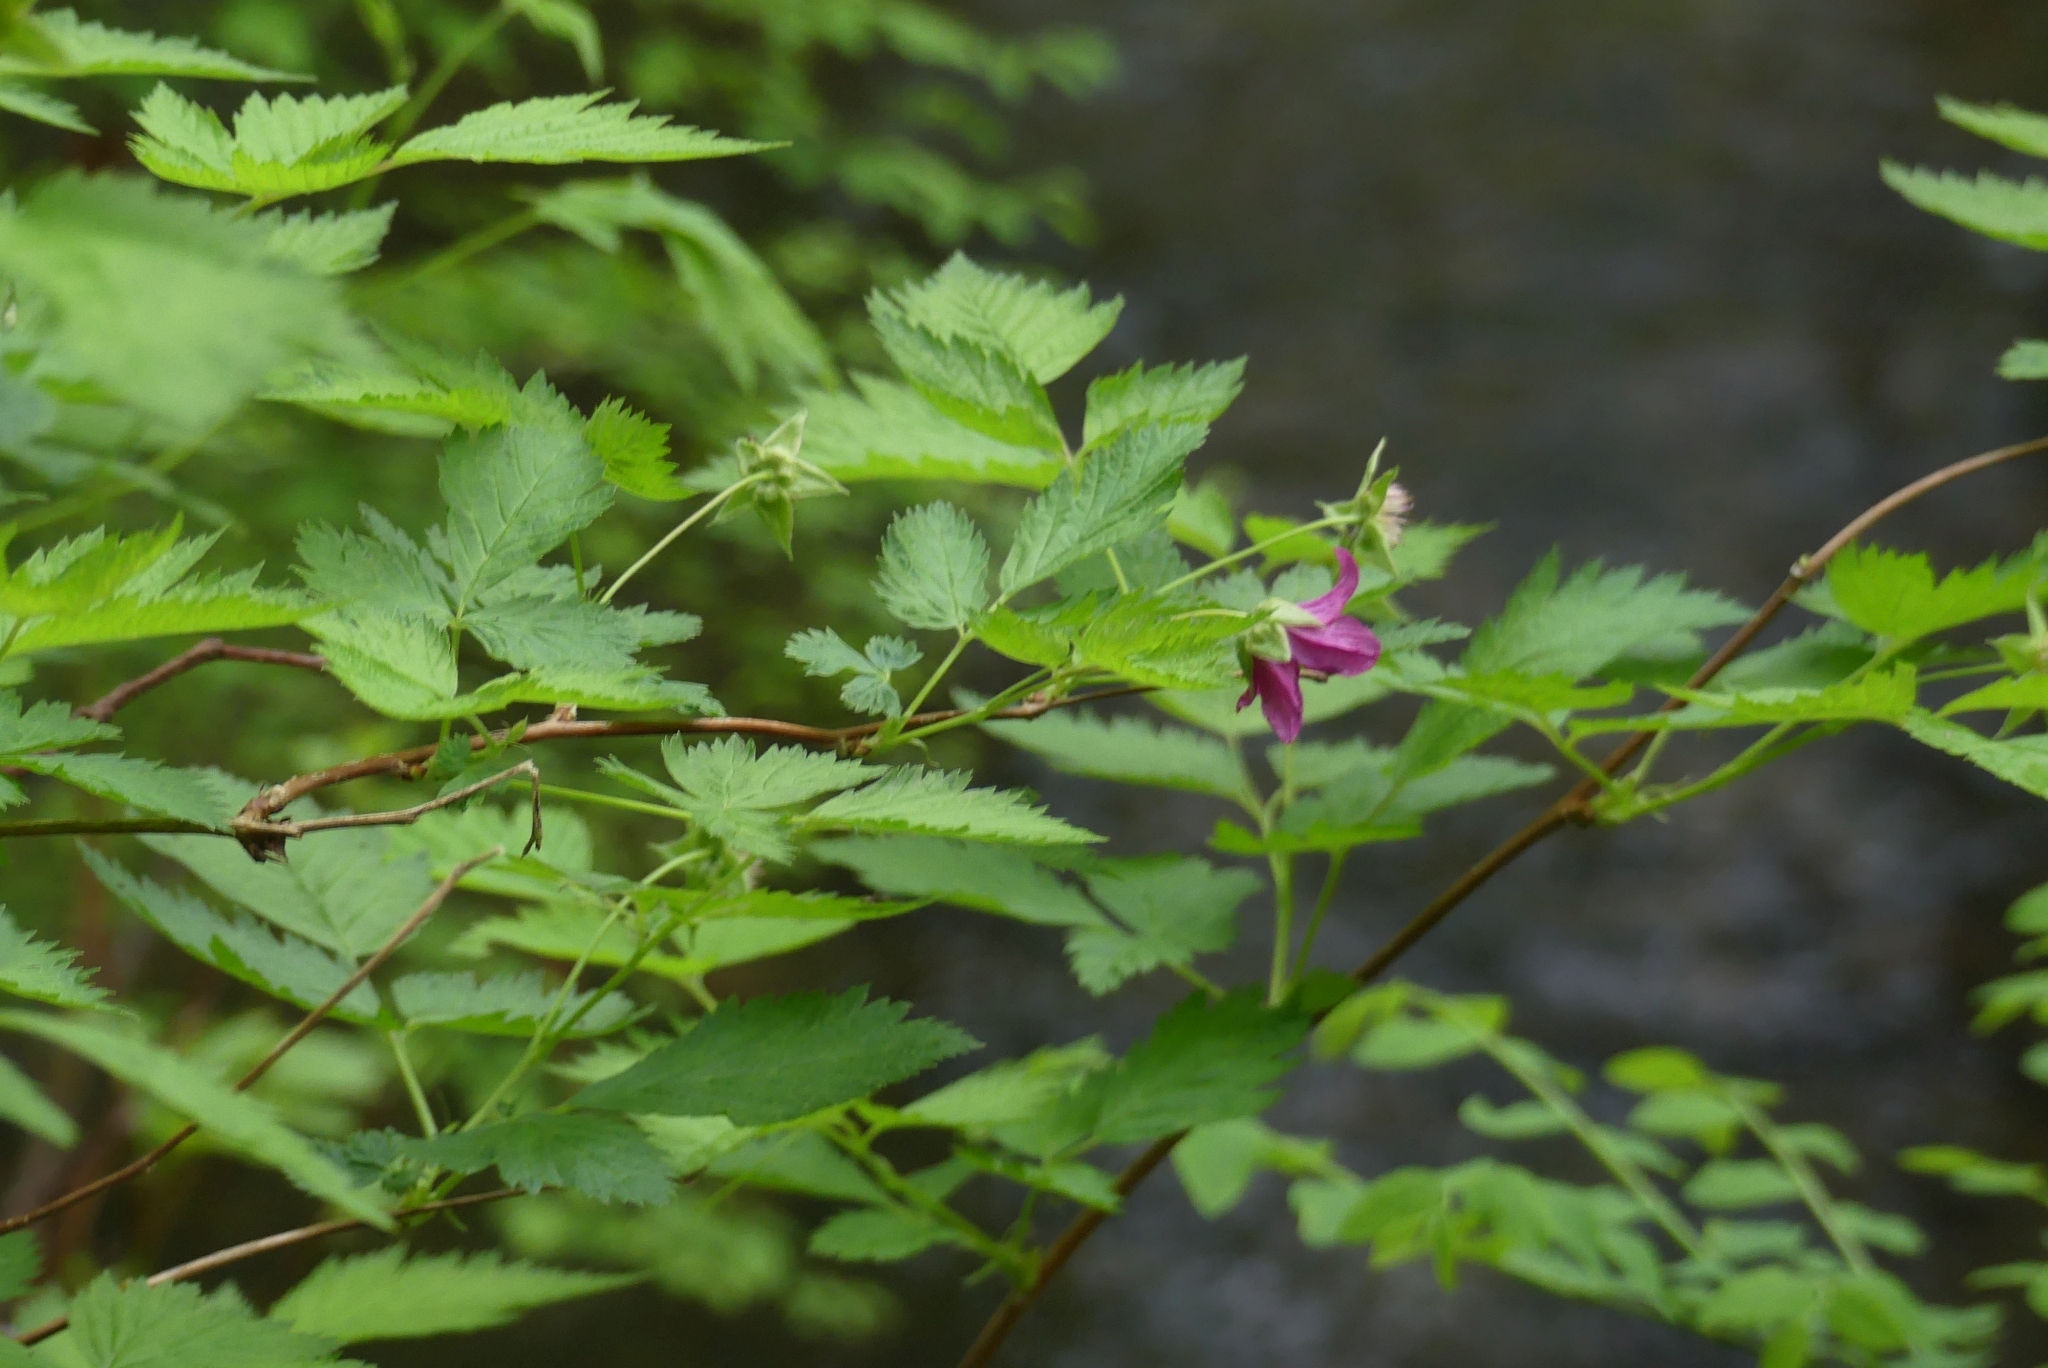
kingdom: Plantae
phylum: Tracheophyta
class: Magnoliopsida
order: Rosales
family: Rosaceae
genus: Rubus
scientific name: Rubus spectabilis
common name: Salmonberry
